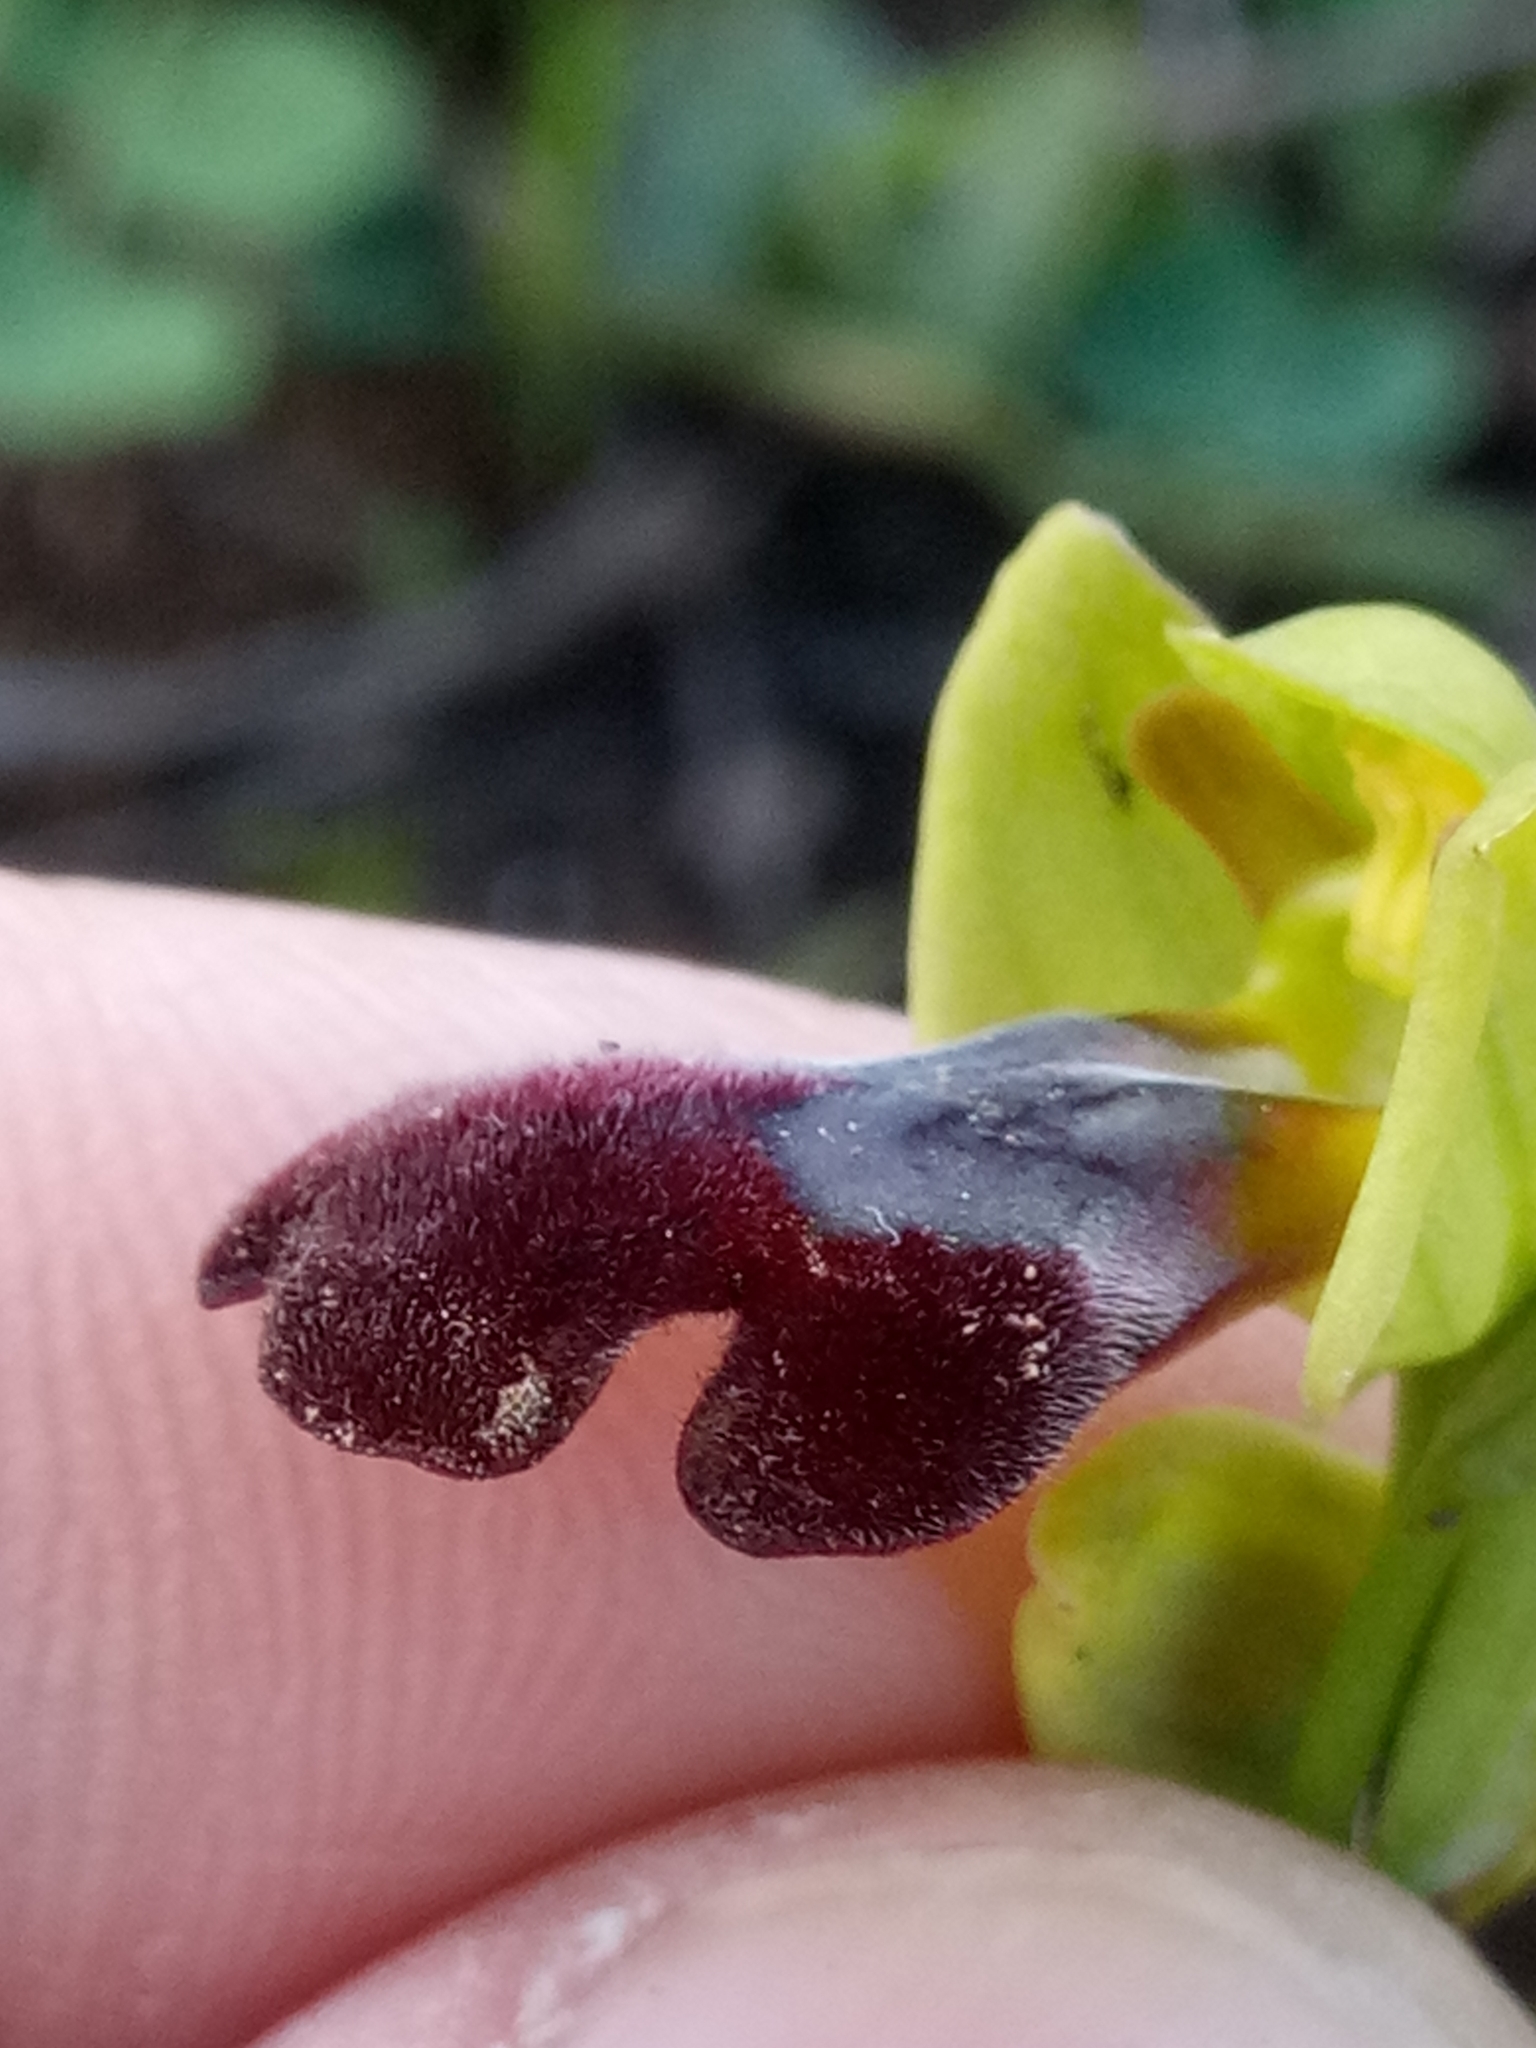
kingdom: Plantae
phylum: Tracheophyta
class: Liliopsida
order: Asparagales
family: Orchidaceae
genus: Ophrys
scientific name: Ophrys fusca
